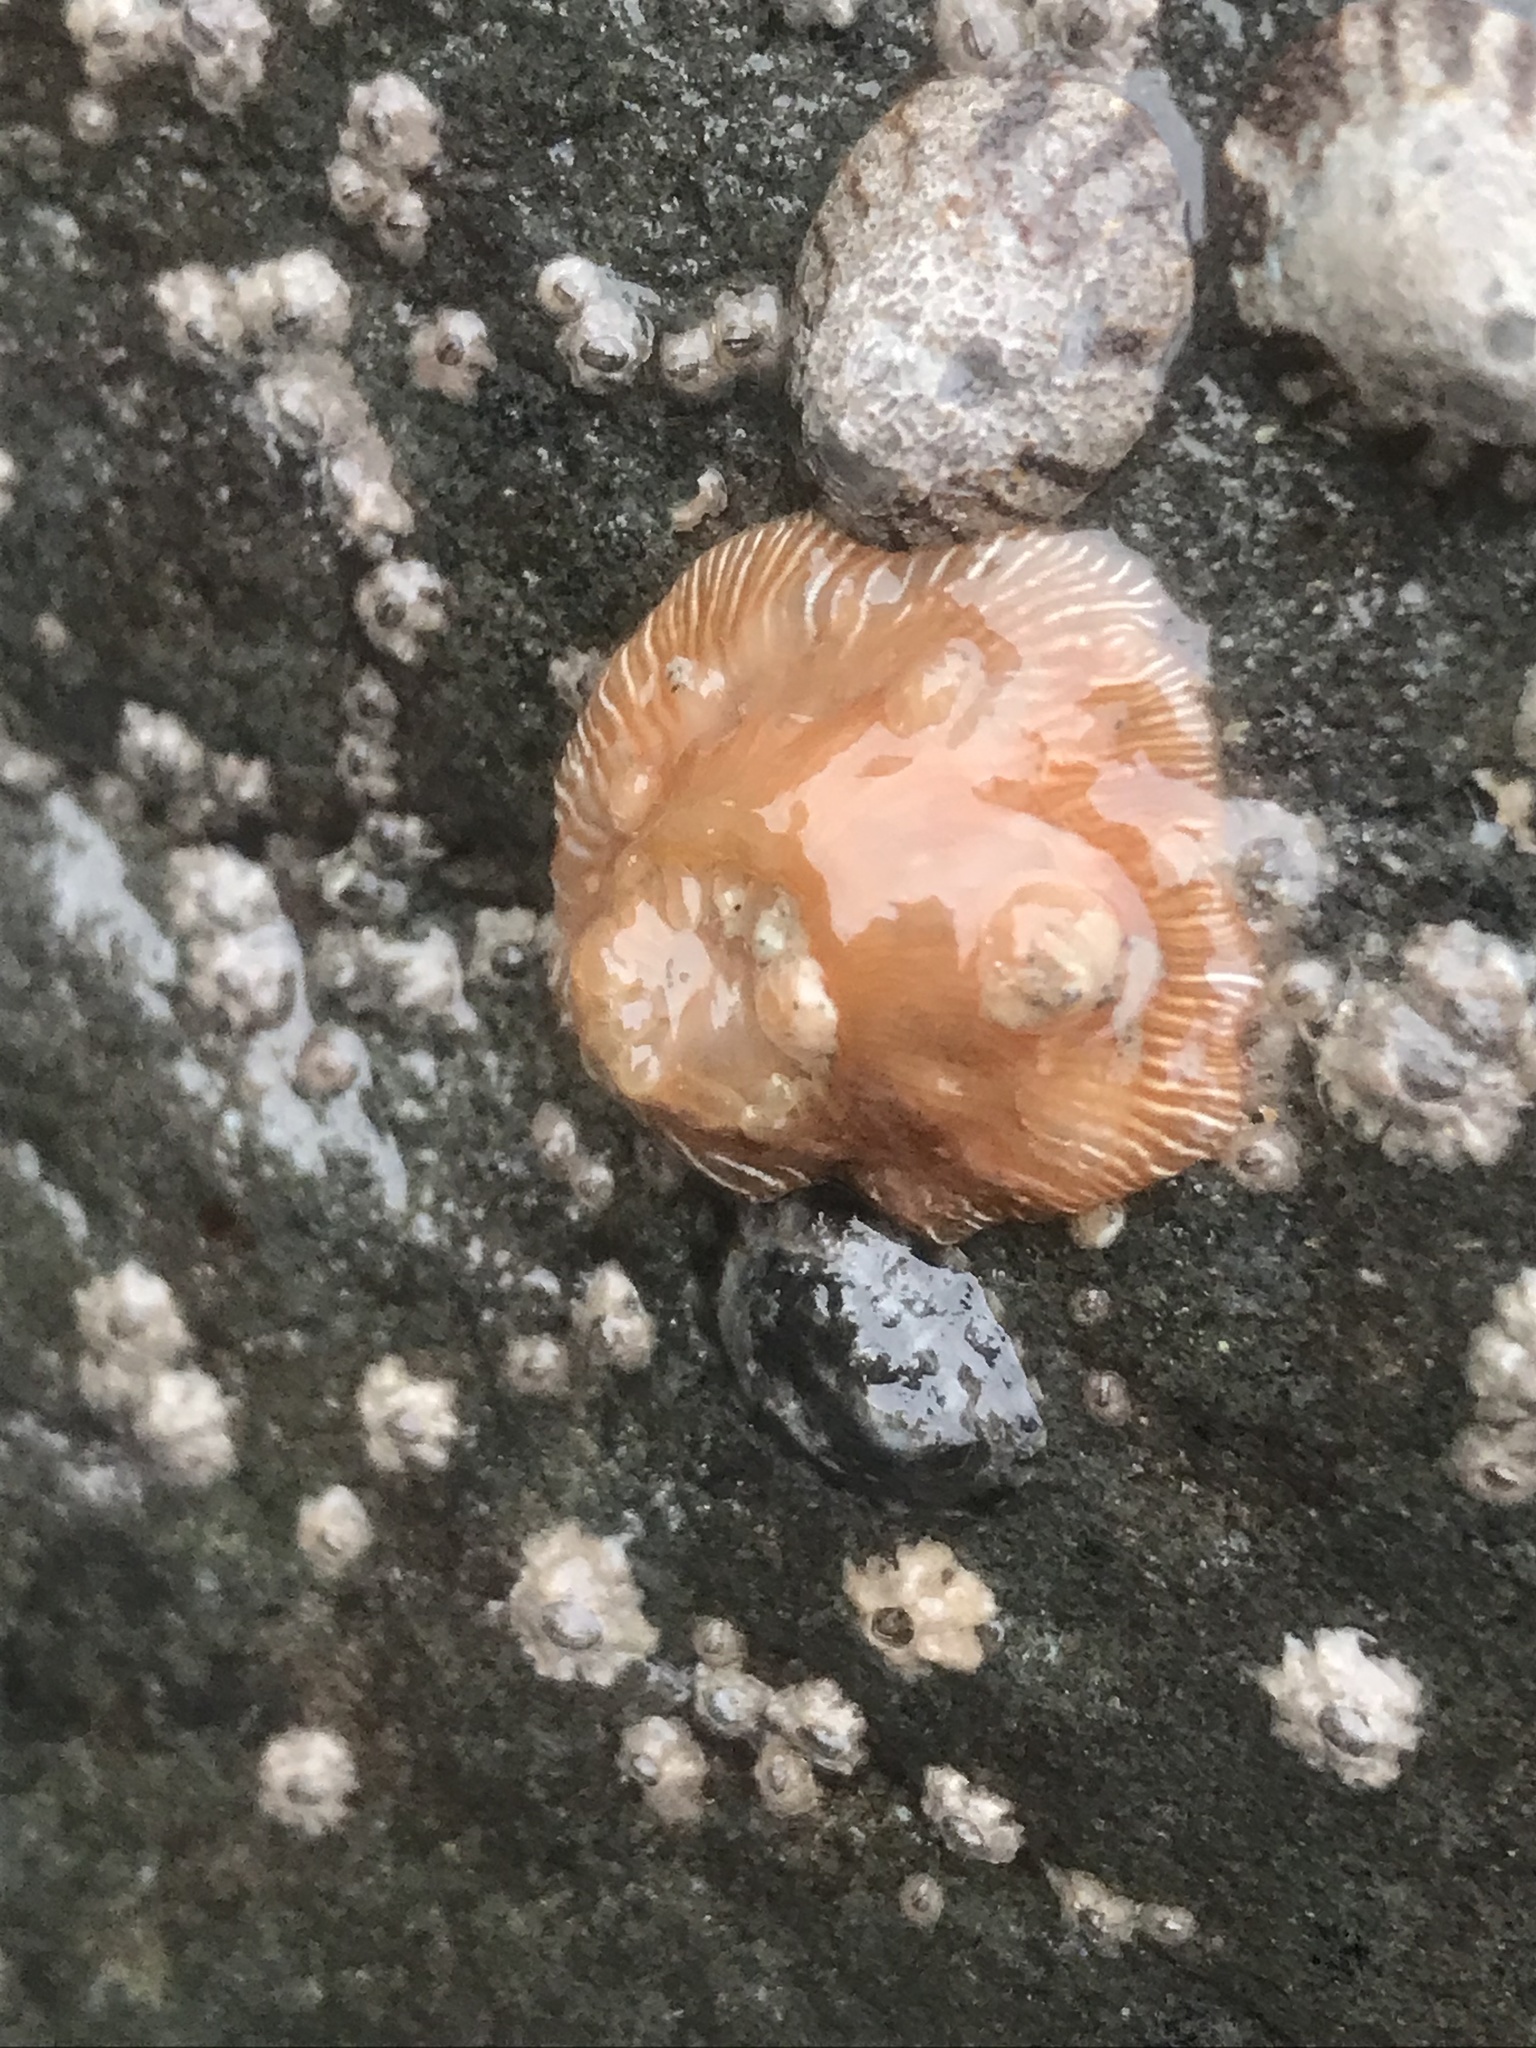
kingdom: Animalia
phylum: Cnidaria
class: Anthozoa
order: Actiniaria
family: Actiniidae
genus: Epiactis
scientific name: Epiactis prolifera
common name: Brooding anemone
